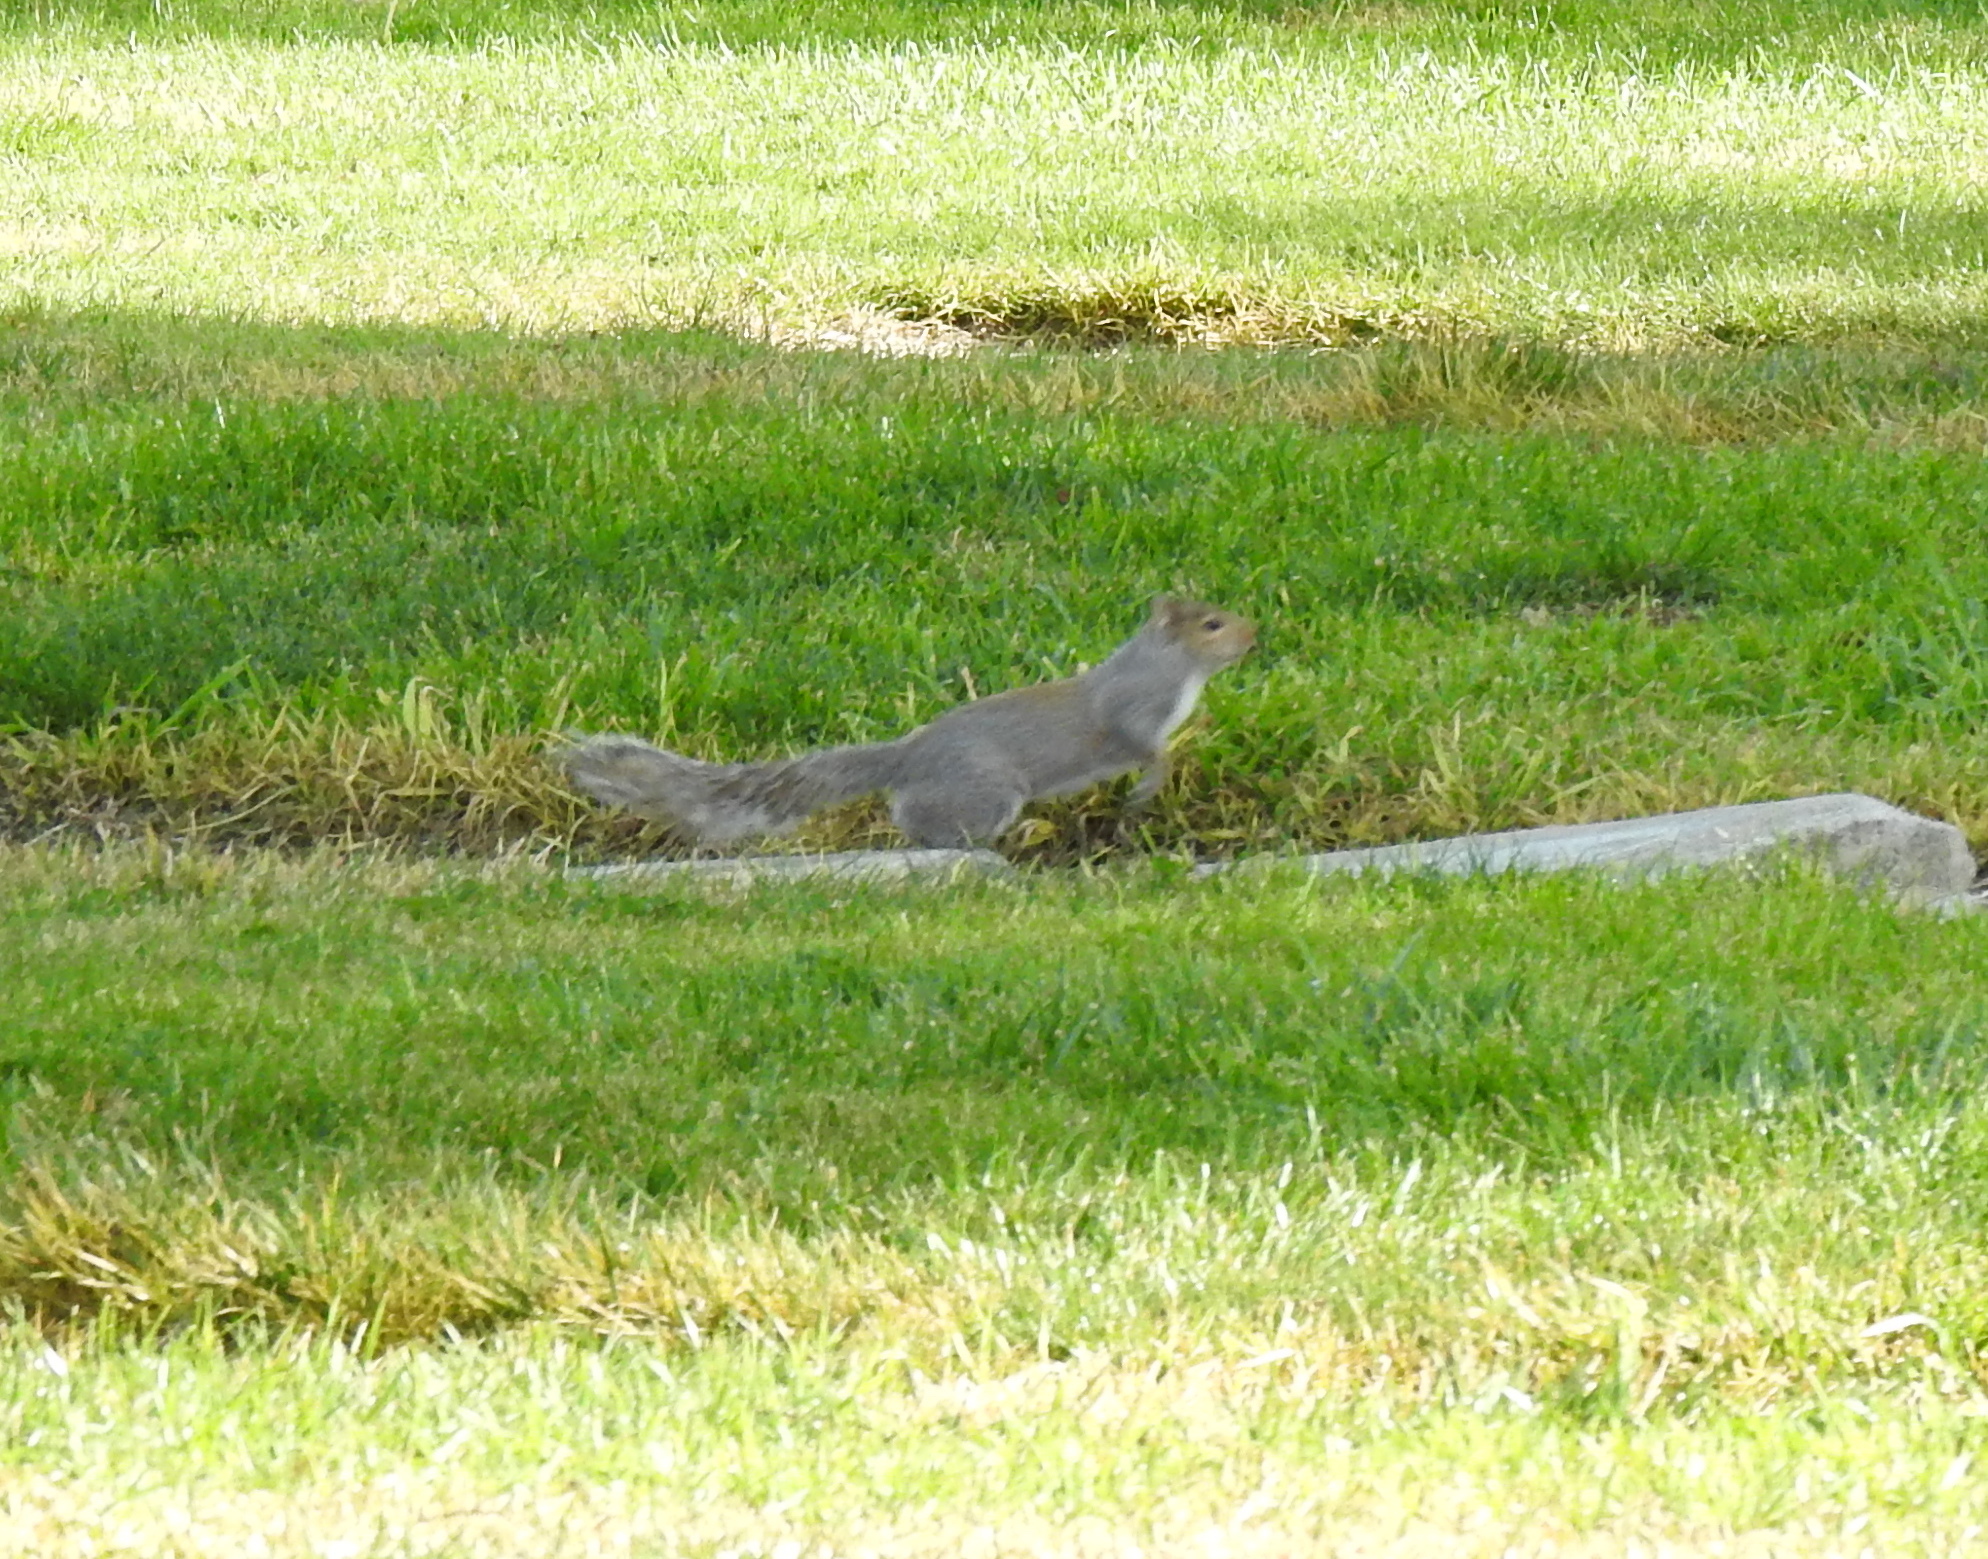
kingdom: Animalia
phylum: Chordata
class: Mammalia
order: Rodentia
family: Sciuridae
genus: Sciurus
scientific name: Sciurus carolinensis
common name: Eastern gray squirrel
